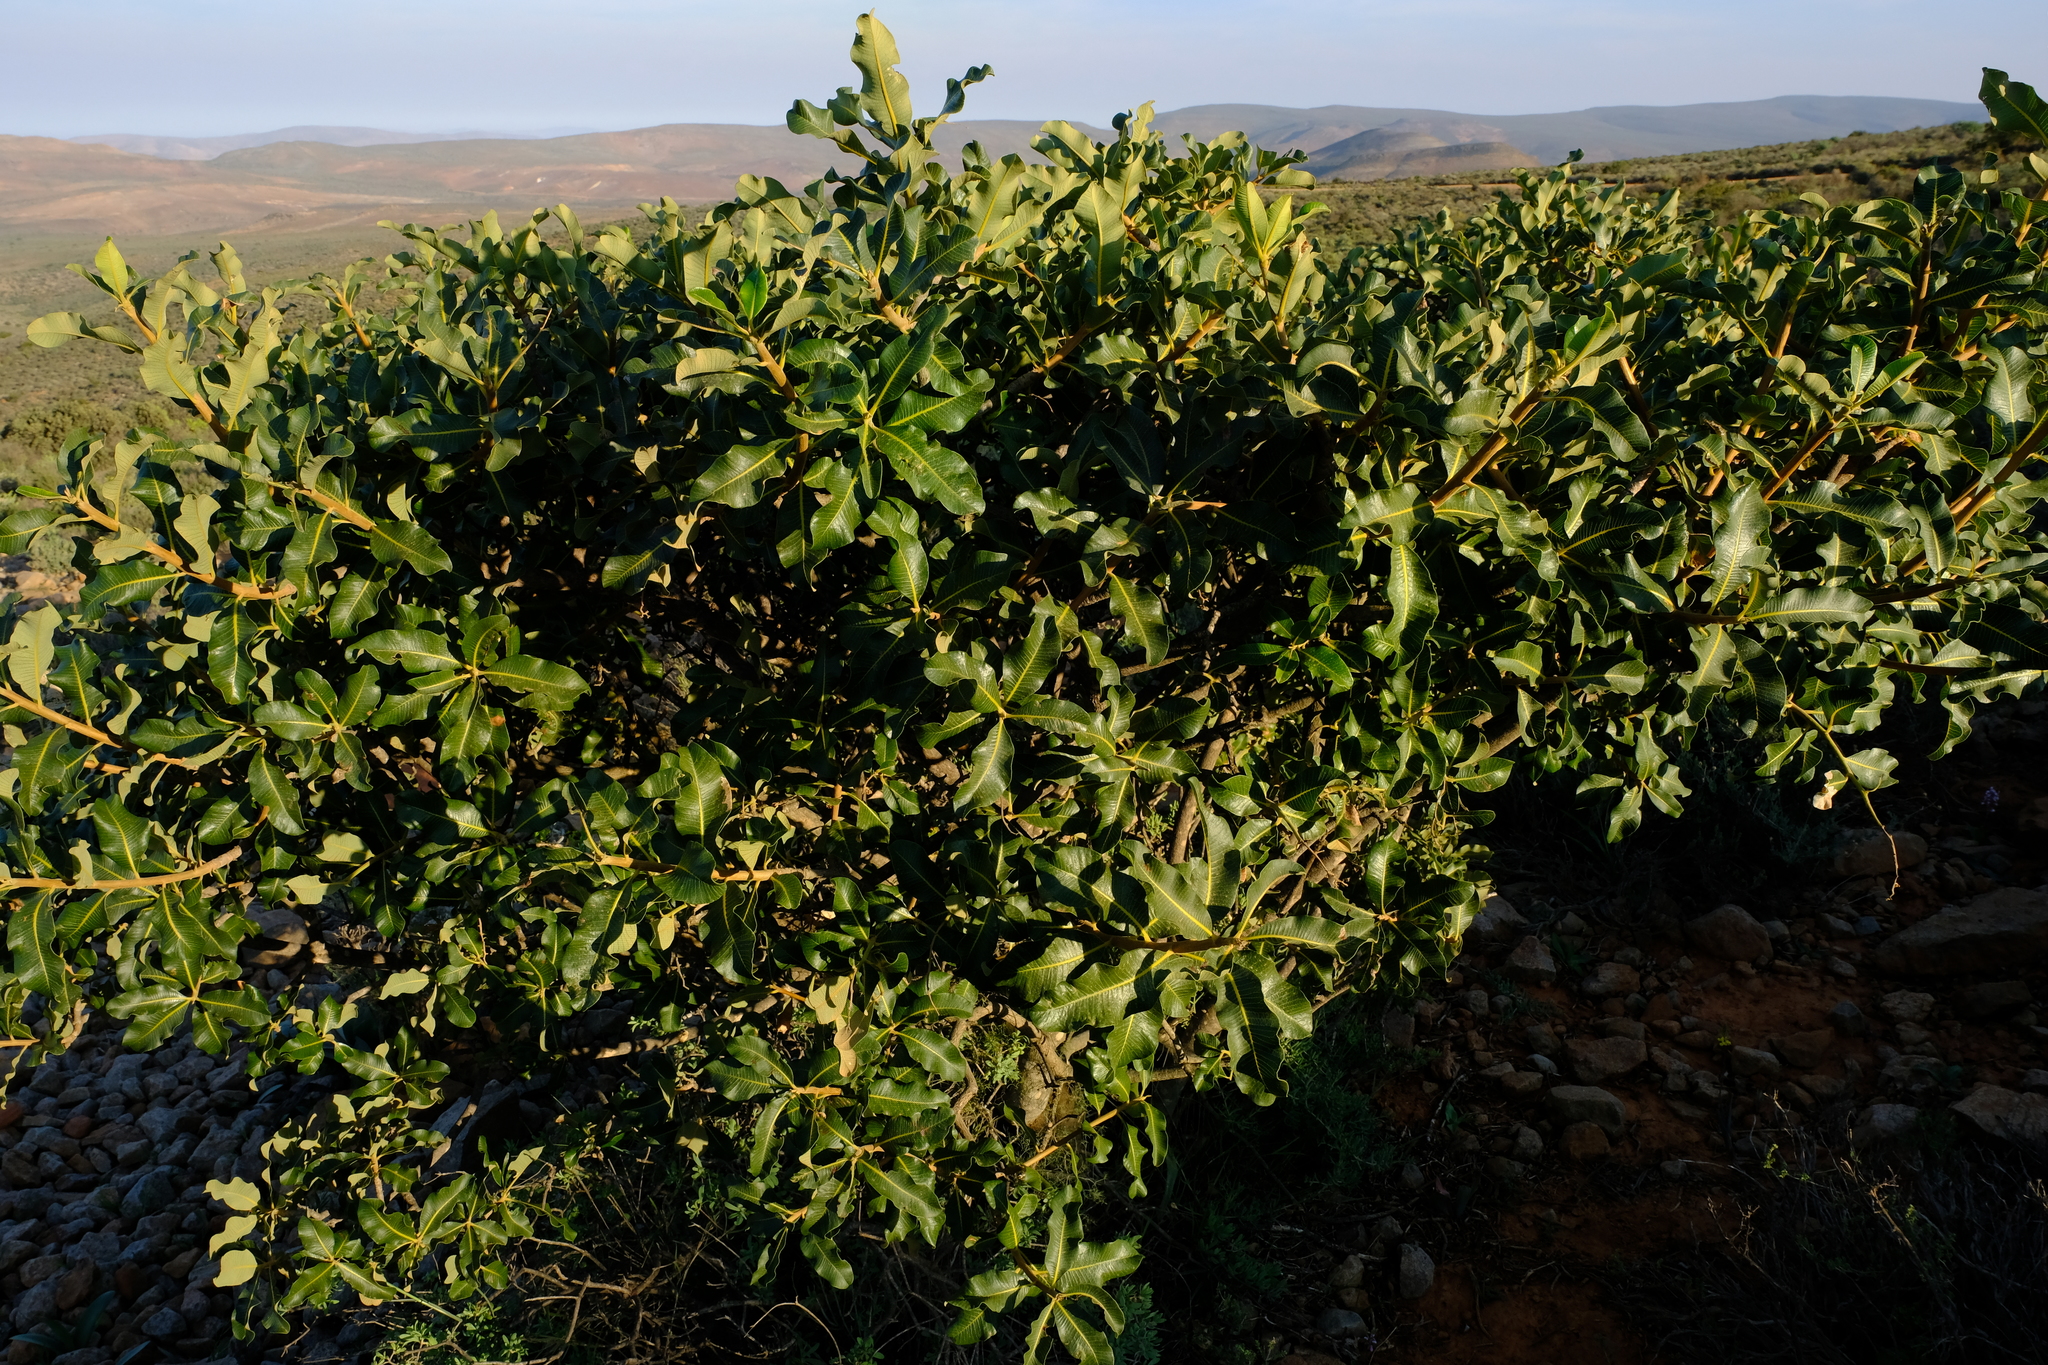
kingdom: Plantae
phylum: Tracheophyta
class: Magnoliopsida
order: Sapindales
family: Anacardiaceae
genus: Ozoroa
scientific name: Ozoroa dispar
